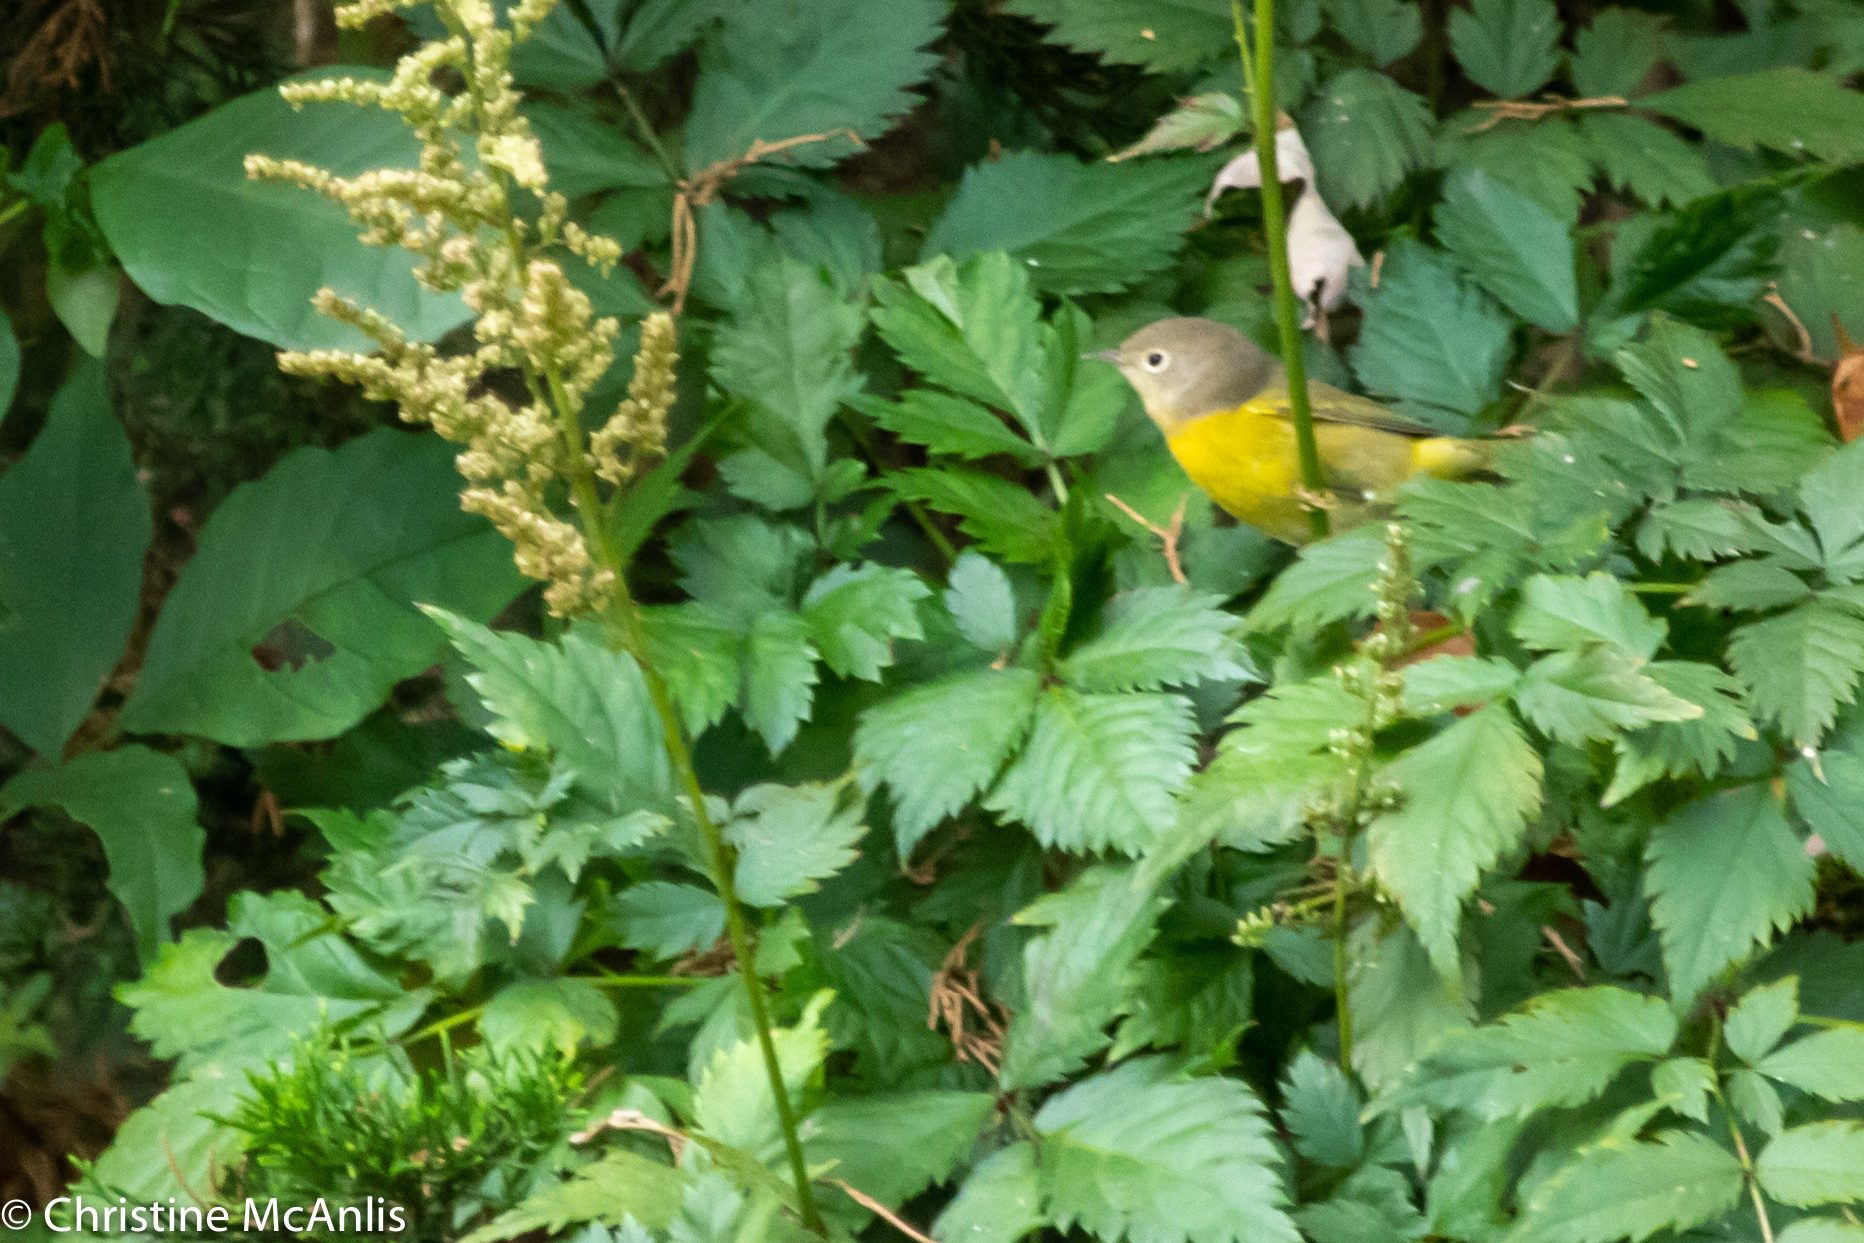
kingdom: Animalia
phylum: Chordata
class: Aves
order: Passeriformes
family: Parulidae
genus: Leiothlypis
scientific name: Leiothlypis ruficapilla
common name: Nashville warbler
